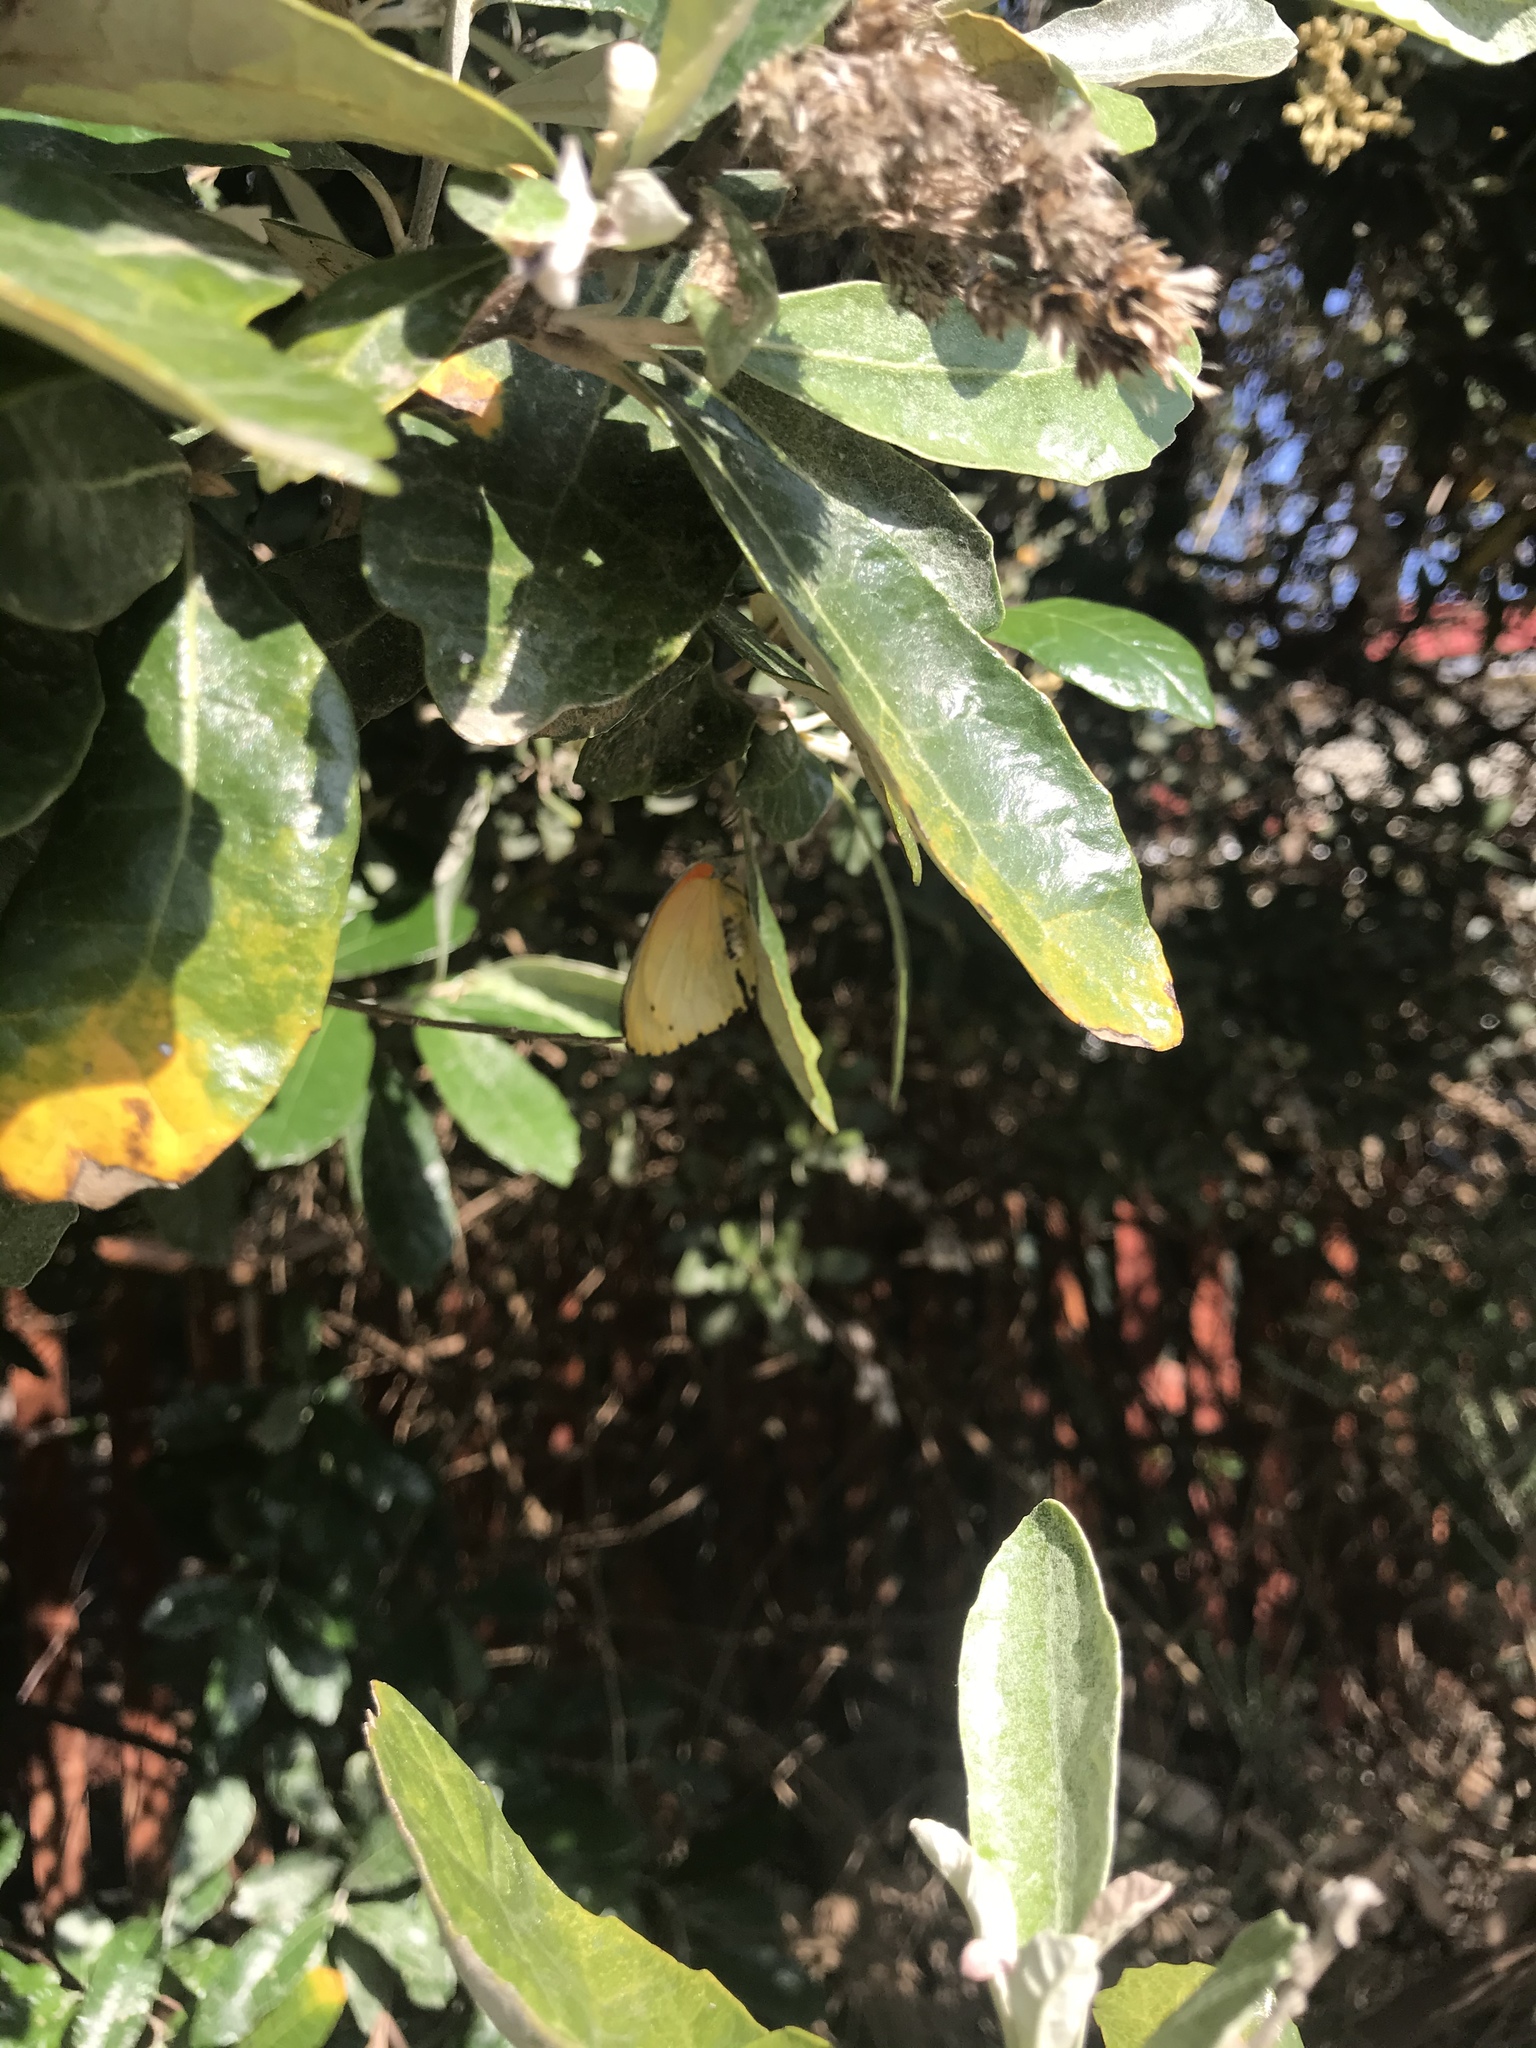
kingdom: Animalia
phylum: Arthropoda
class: Insecta
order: Lepidoptera
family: Pieridae
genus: Mylothris
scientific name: Mylothris agathina
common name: Eastern dotted border
